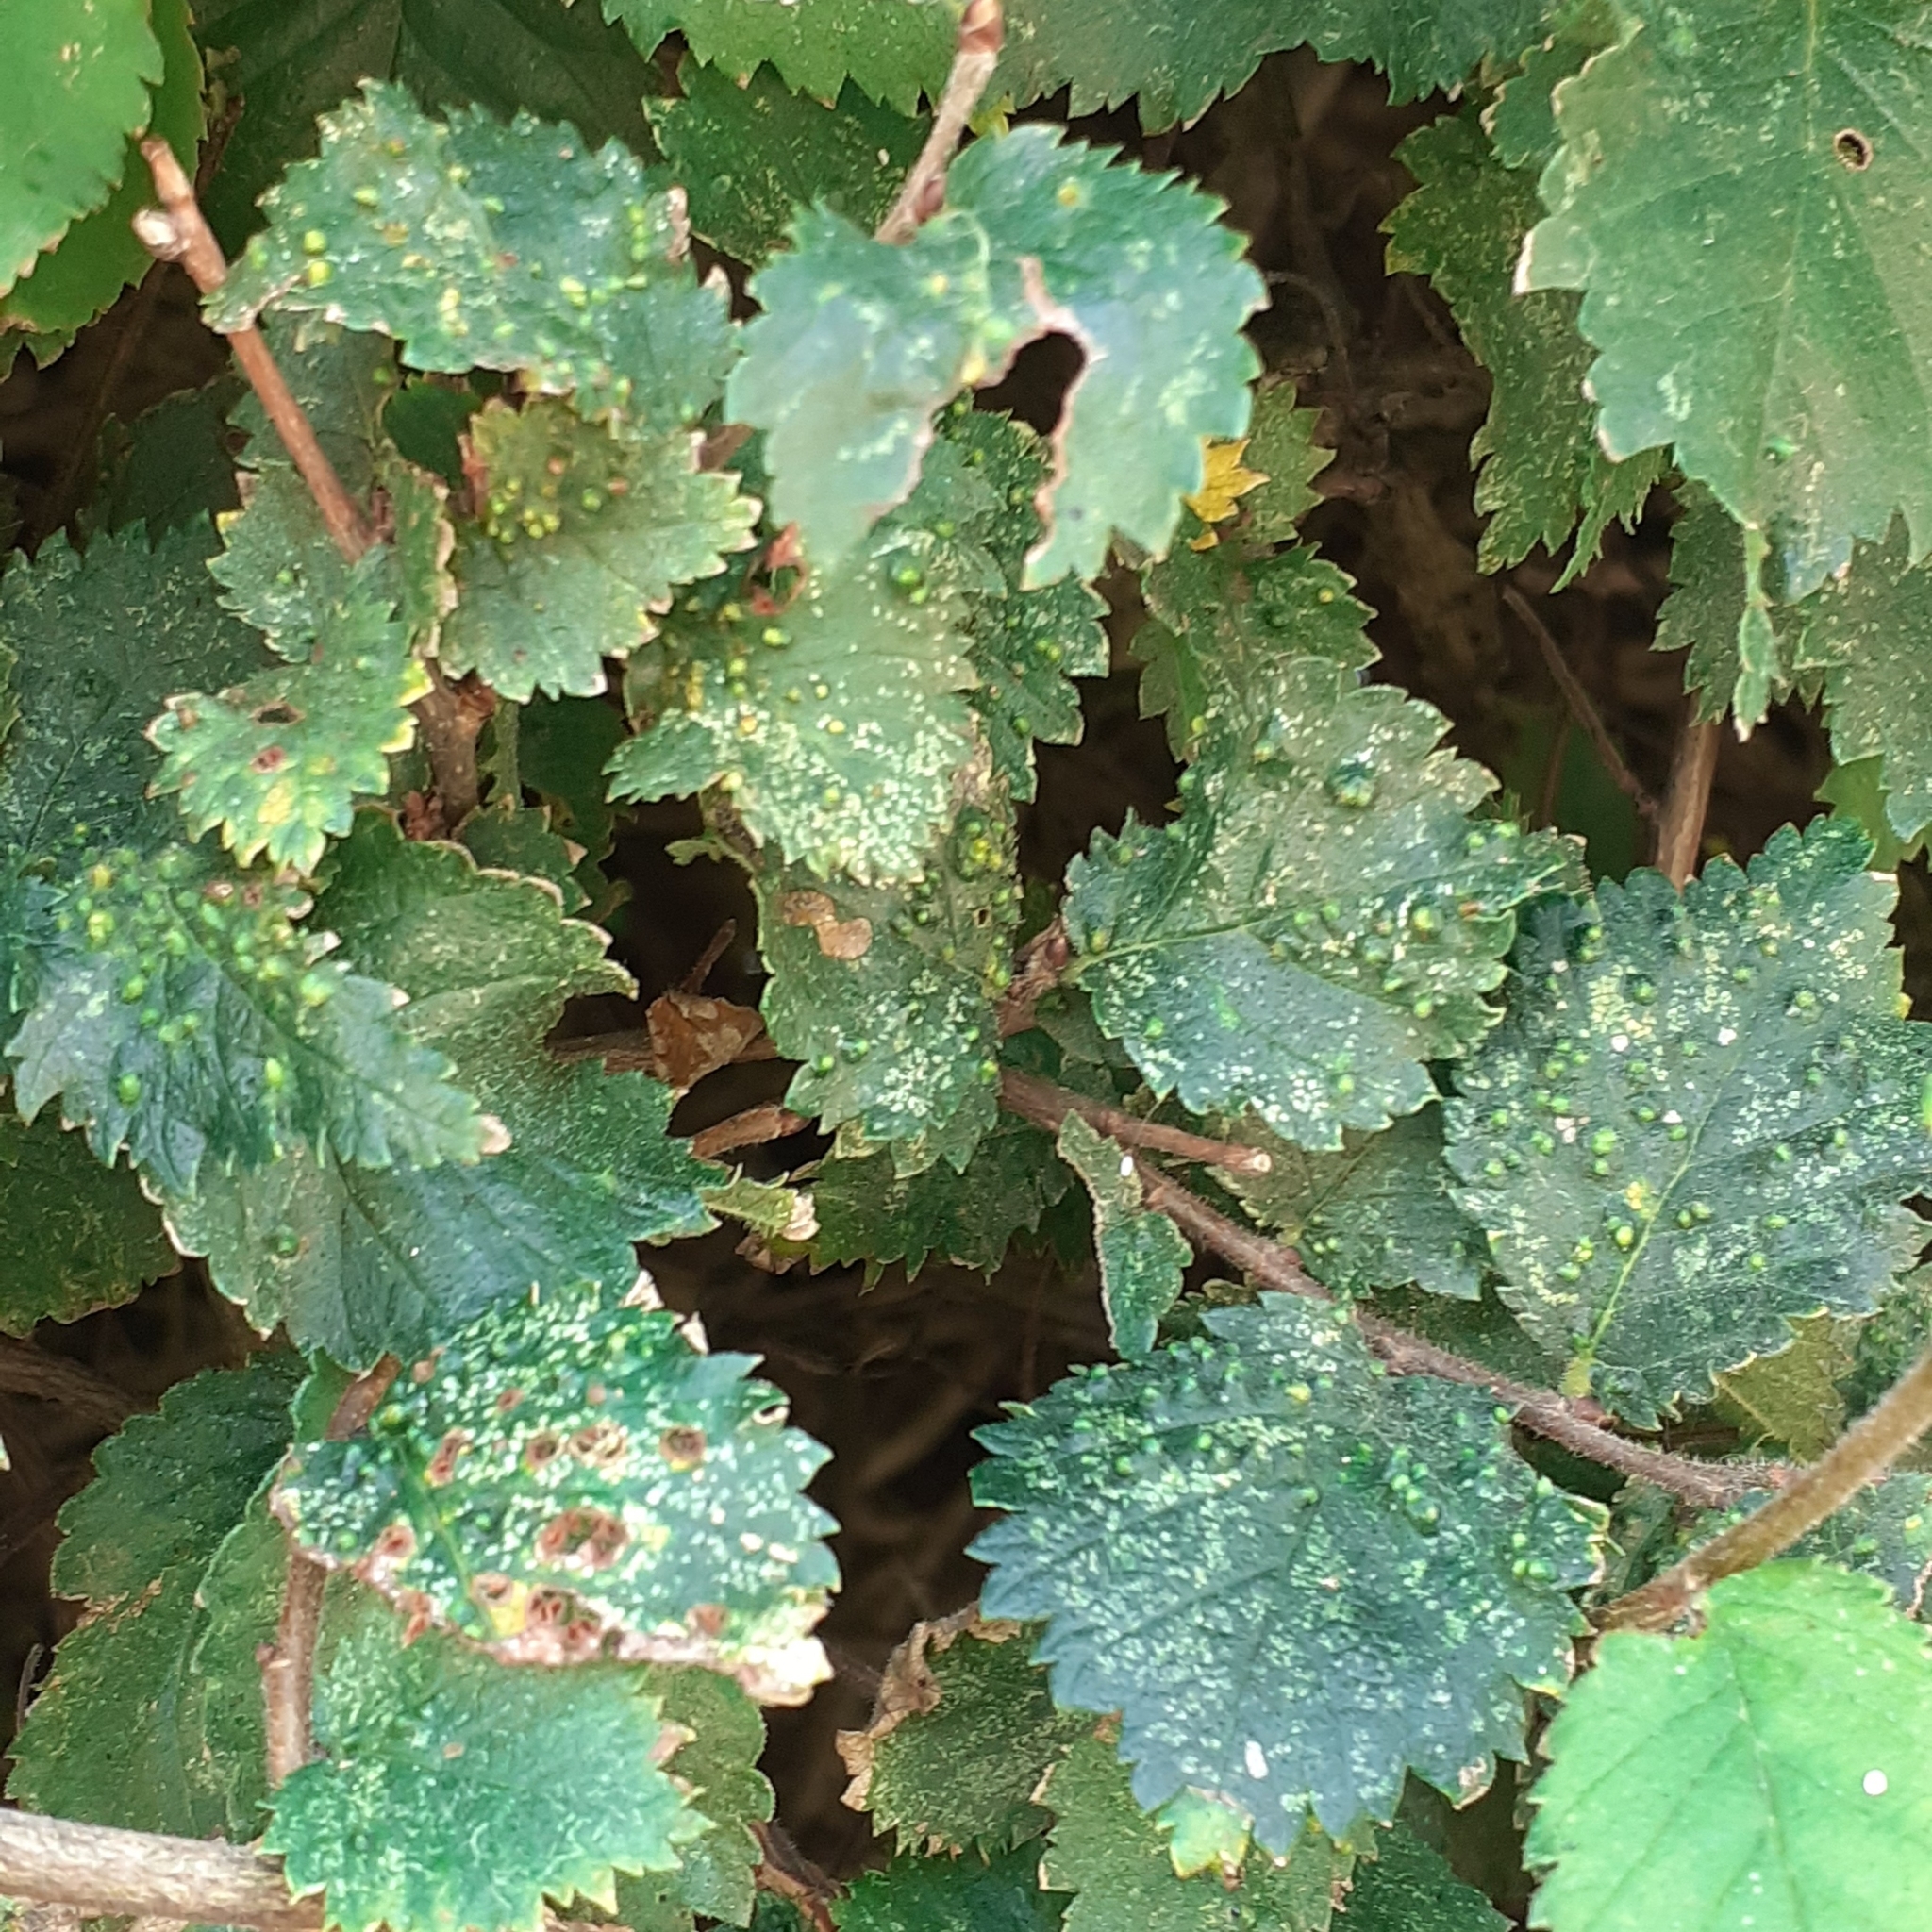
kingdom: Animalia
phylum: Arthropoda
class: Arachnida
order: Trombidiformes
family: Eriophyidae
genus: Aceria
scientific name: Aceria brevipunctata
